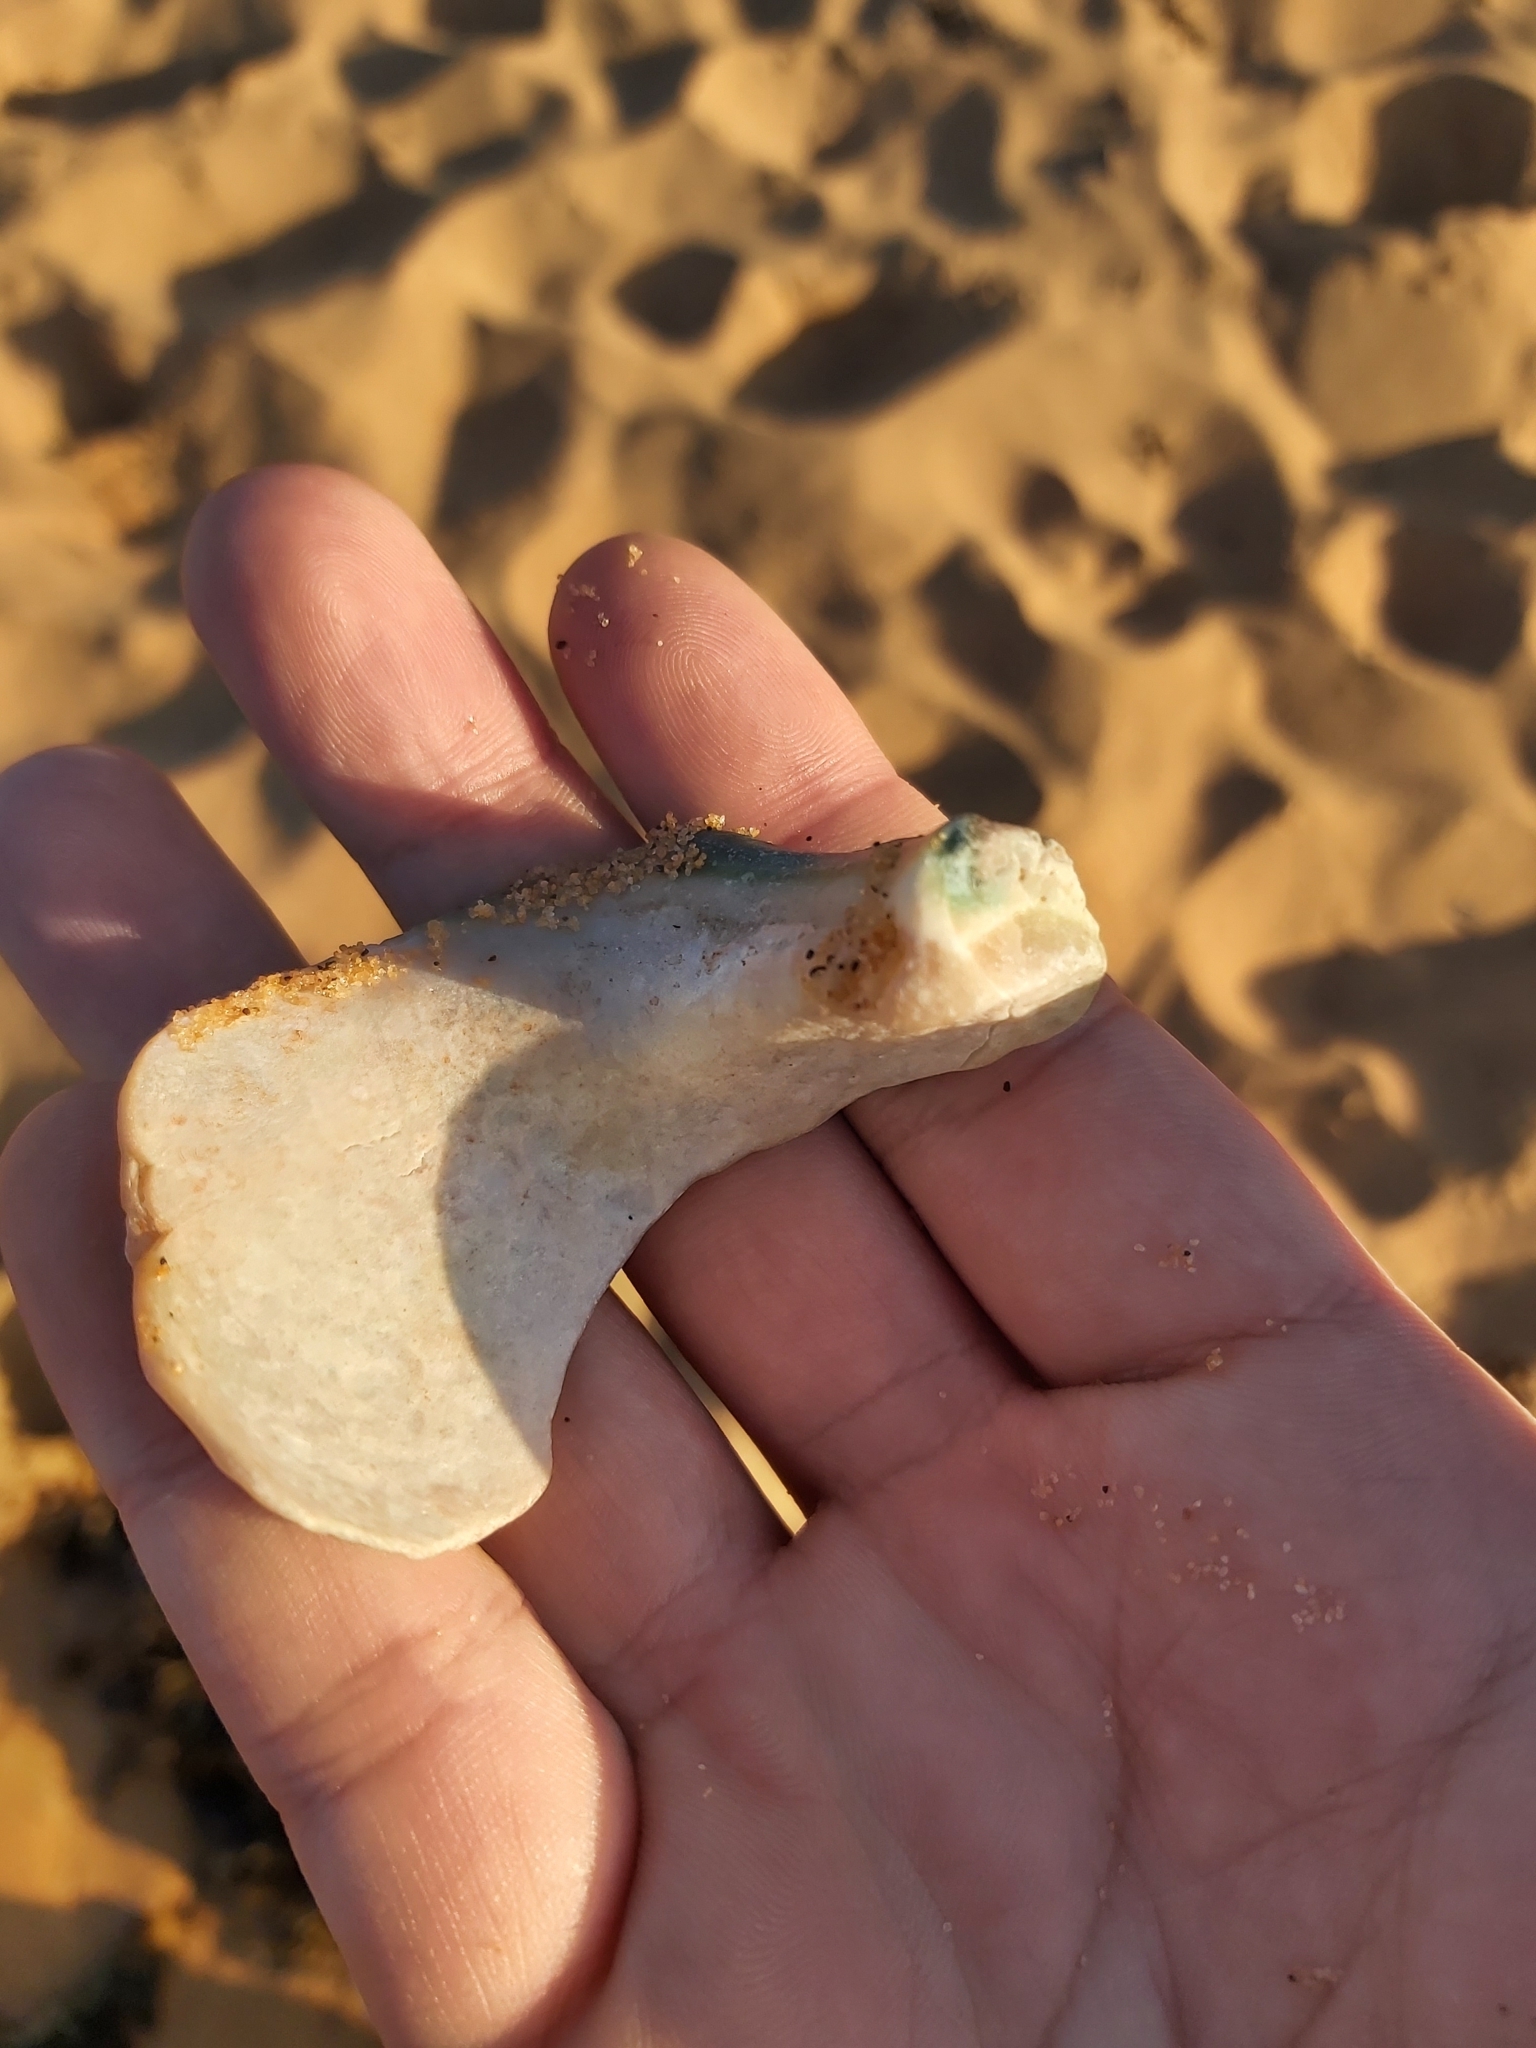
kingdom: Animalia
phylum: Mollusca
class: Gastropoda
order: Trochida
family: Turbinidae
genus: Turbo
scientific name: Turbo militaris
